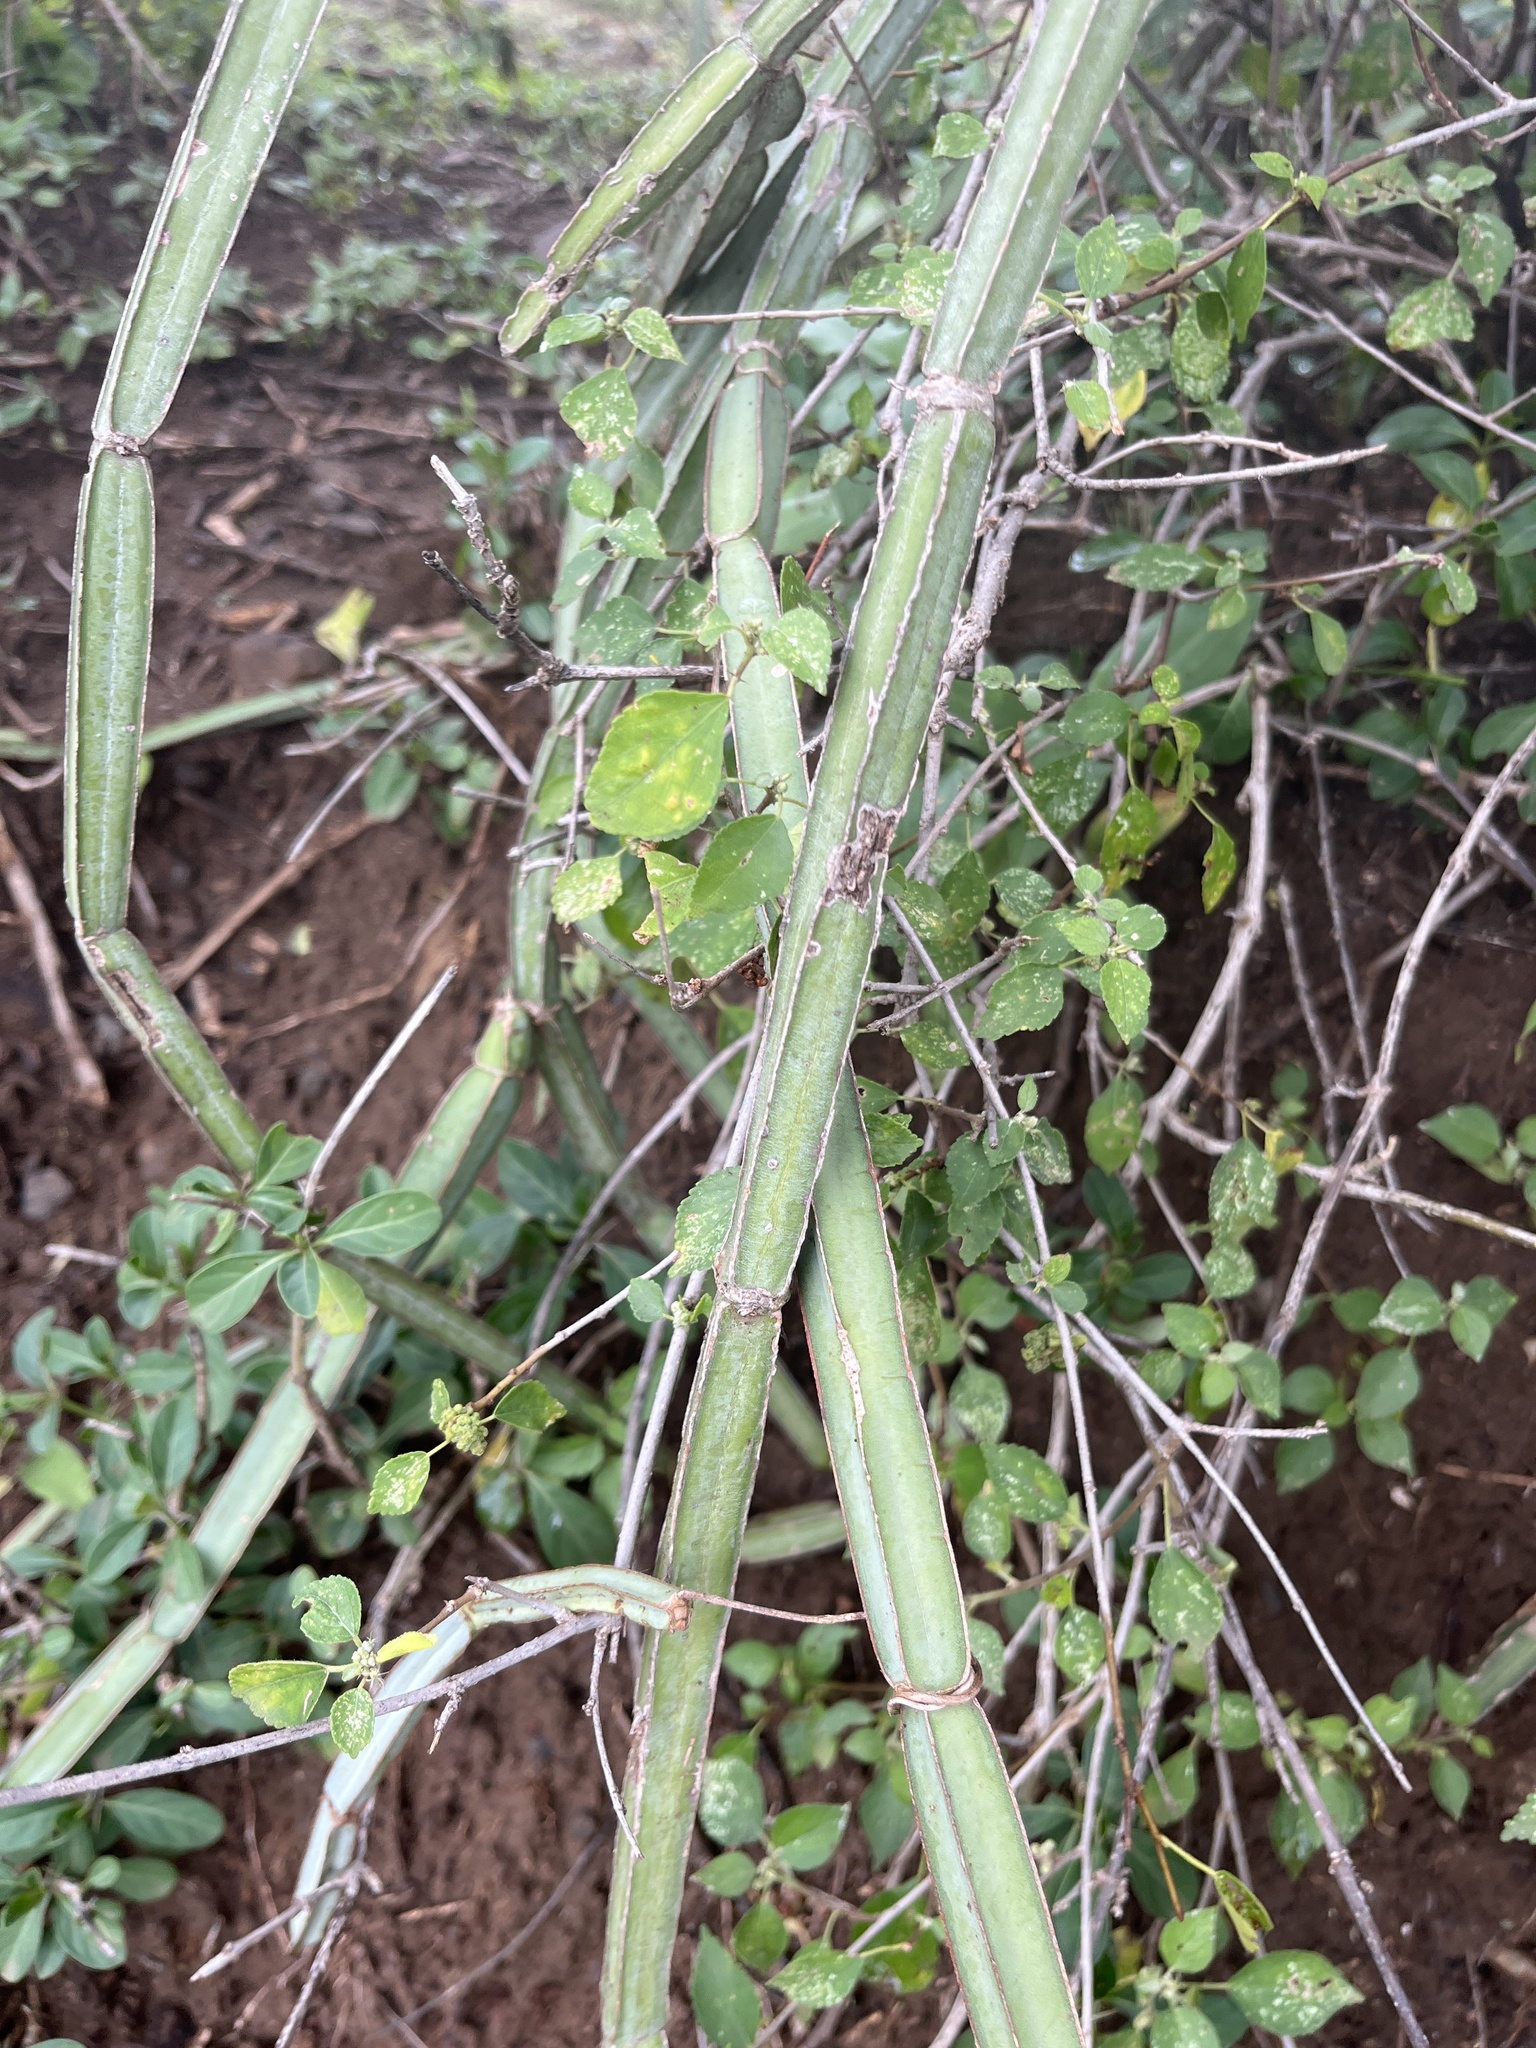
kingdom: Plantae
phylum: Tracheophyta
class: Magnoliopsida
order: Vitales
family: Vitaceae
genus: Cissus
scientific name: Cissus quadrangularis
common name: Veldt-grape
